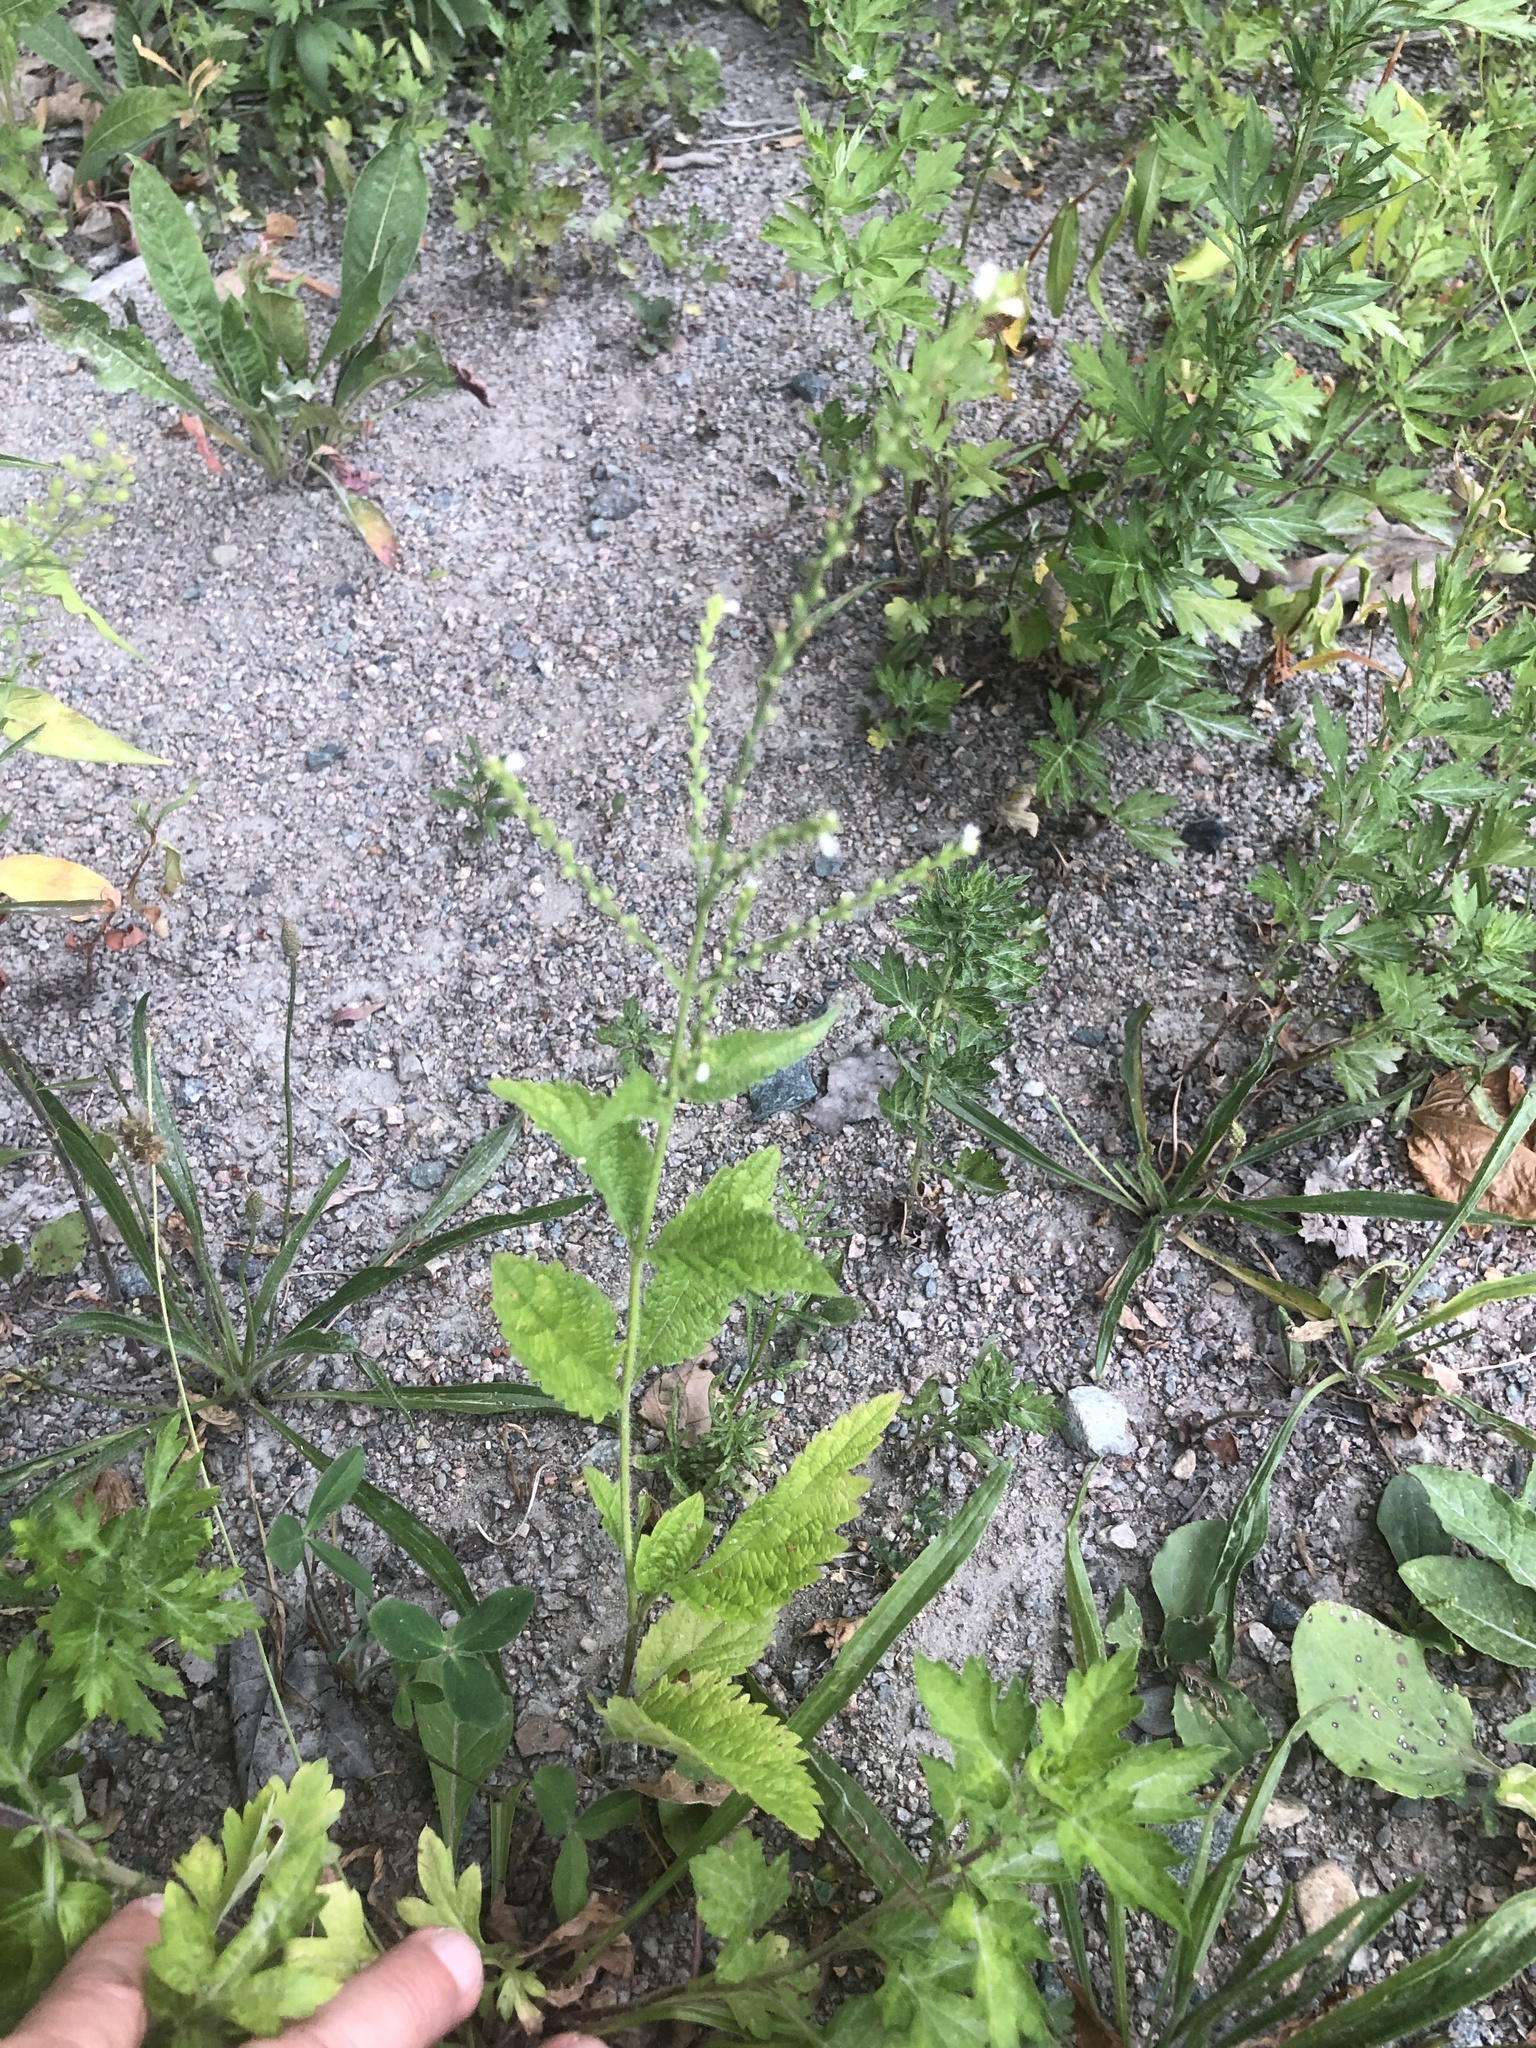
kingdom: Plantae
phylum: Tracheophyta
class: Magnoliopsida
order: Lamiales
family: Verbenaceae
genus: Verbena
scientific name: Verbena urticifolia
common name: Nettle-leaved vervain
